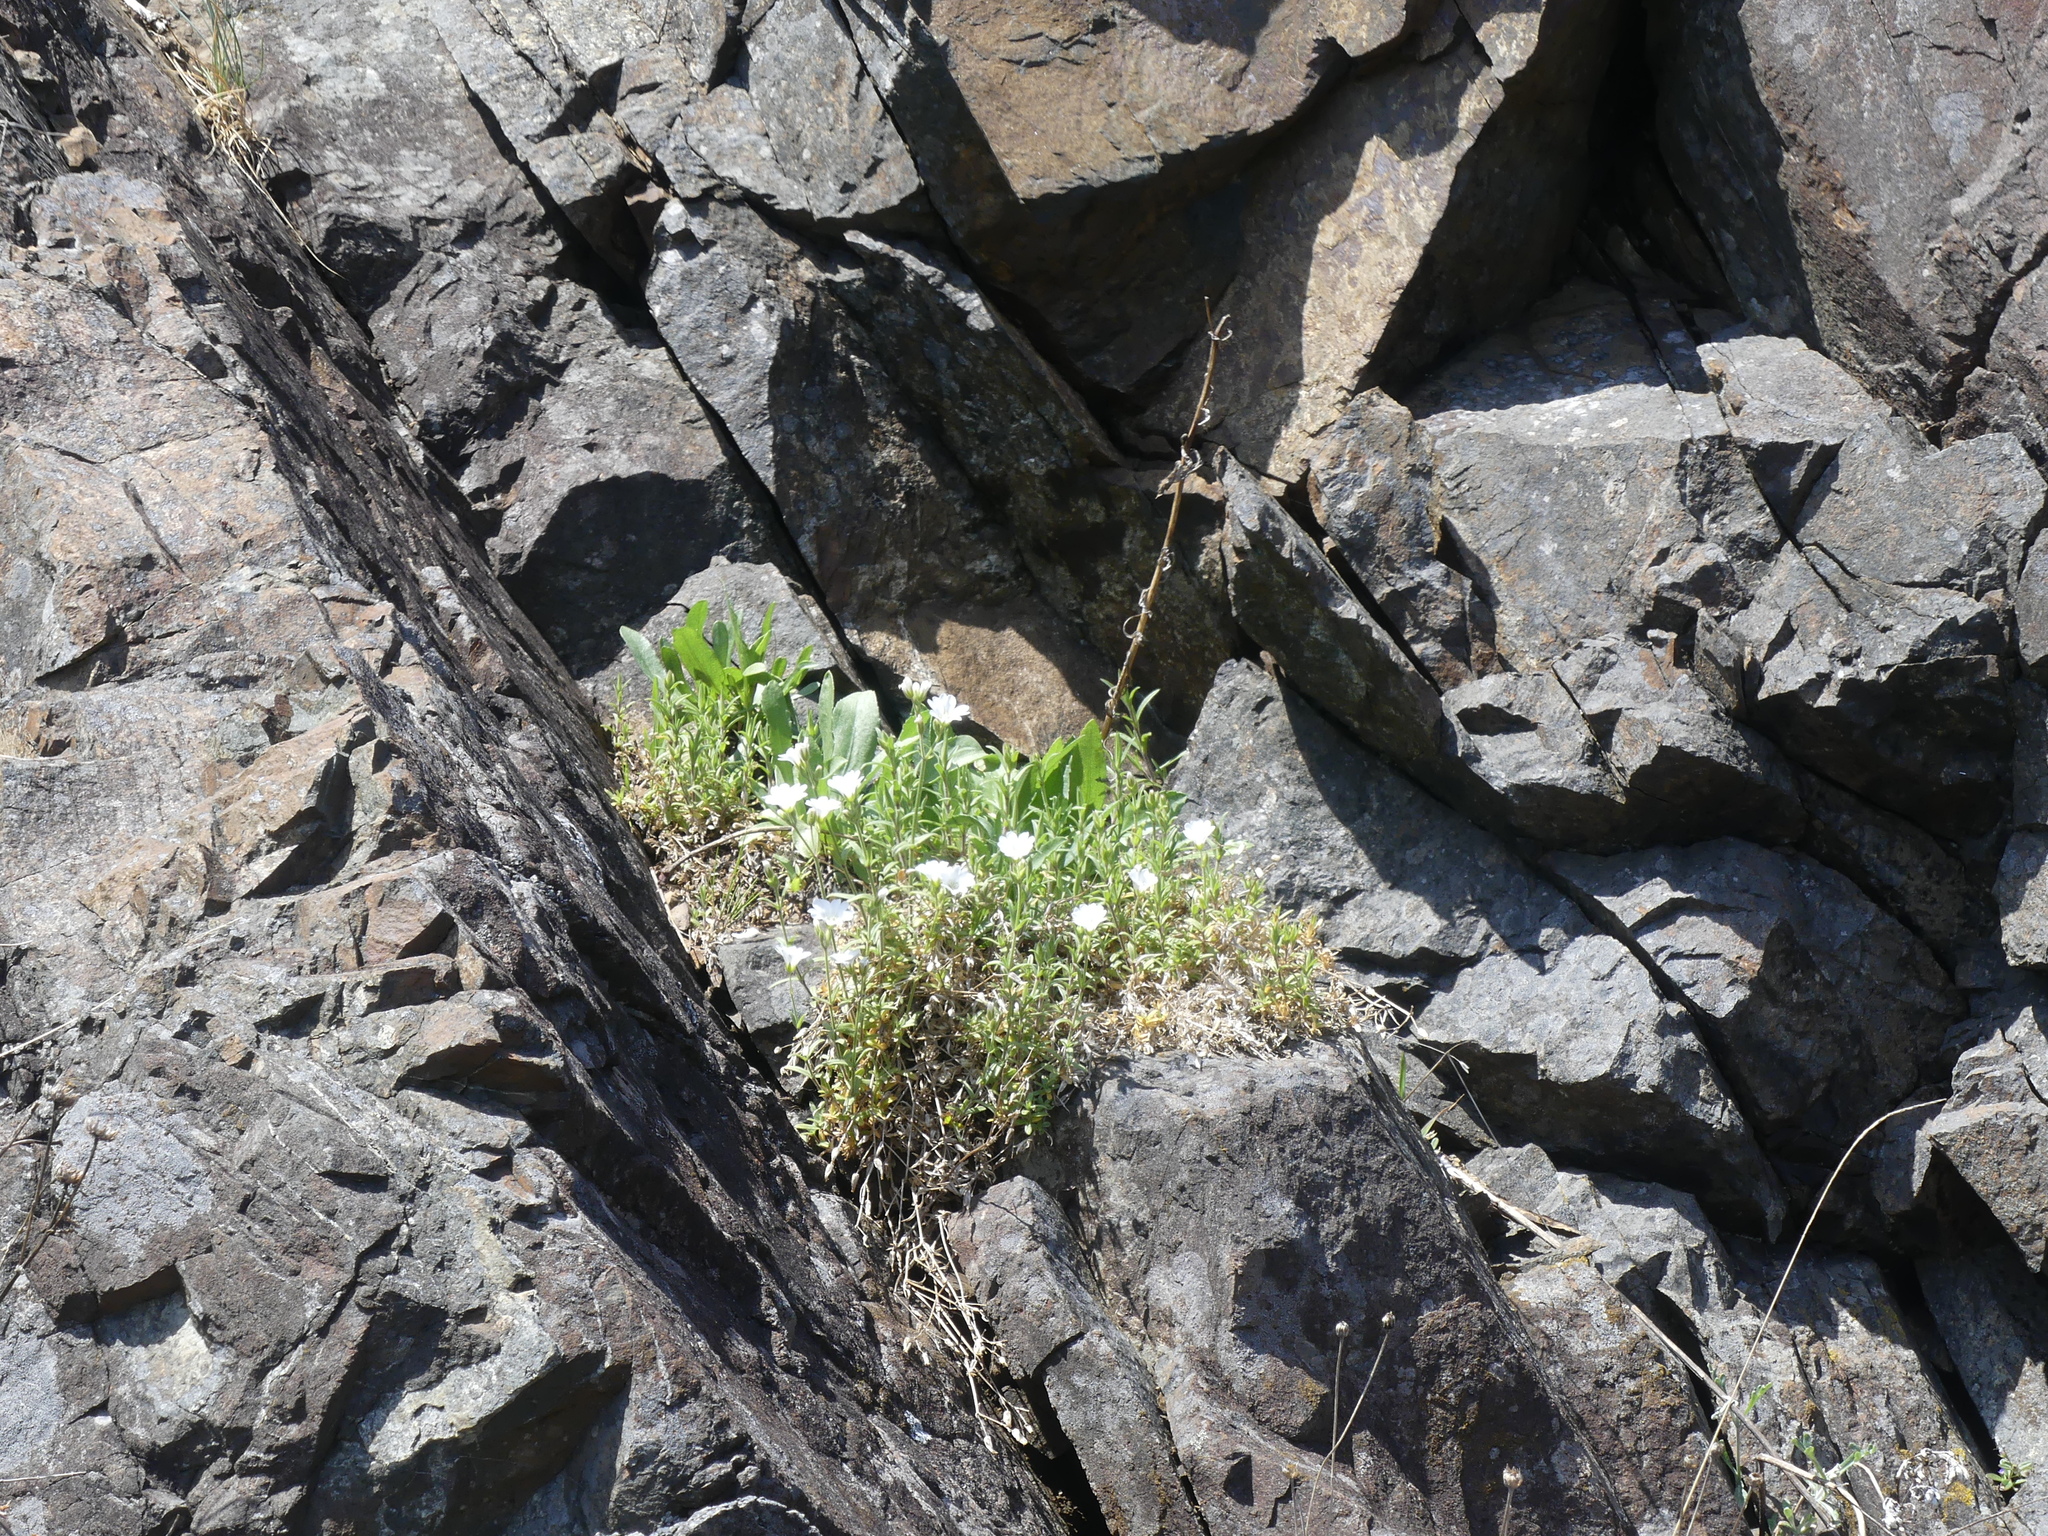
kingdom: Plantae
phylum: Tracheophyta
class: Magnoliopsida
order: Caryophyllales
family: Caryophyllaceae
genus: Cerastium
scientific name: Cerastium arvense
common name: Field mouse-ear
